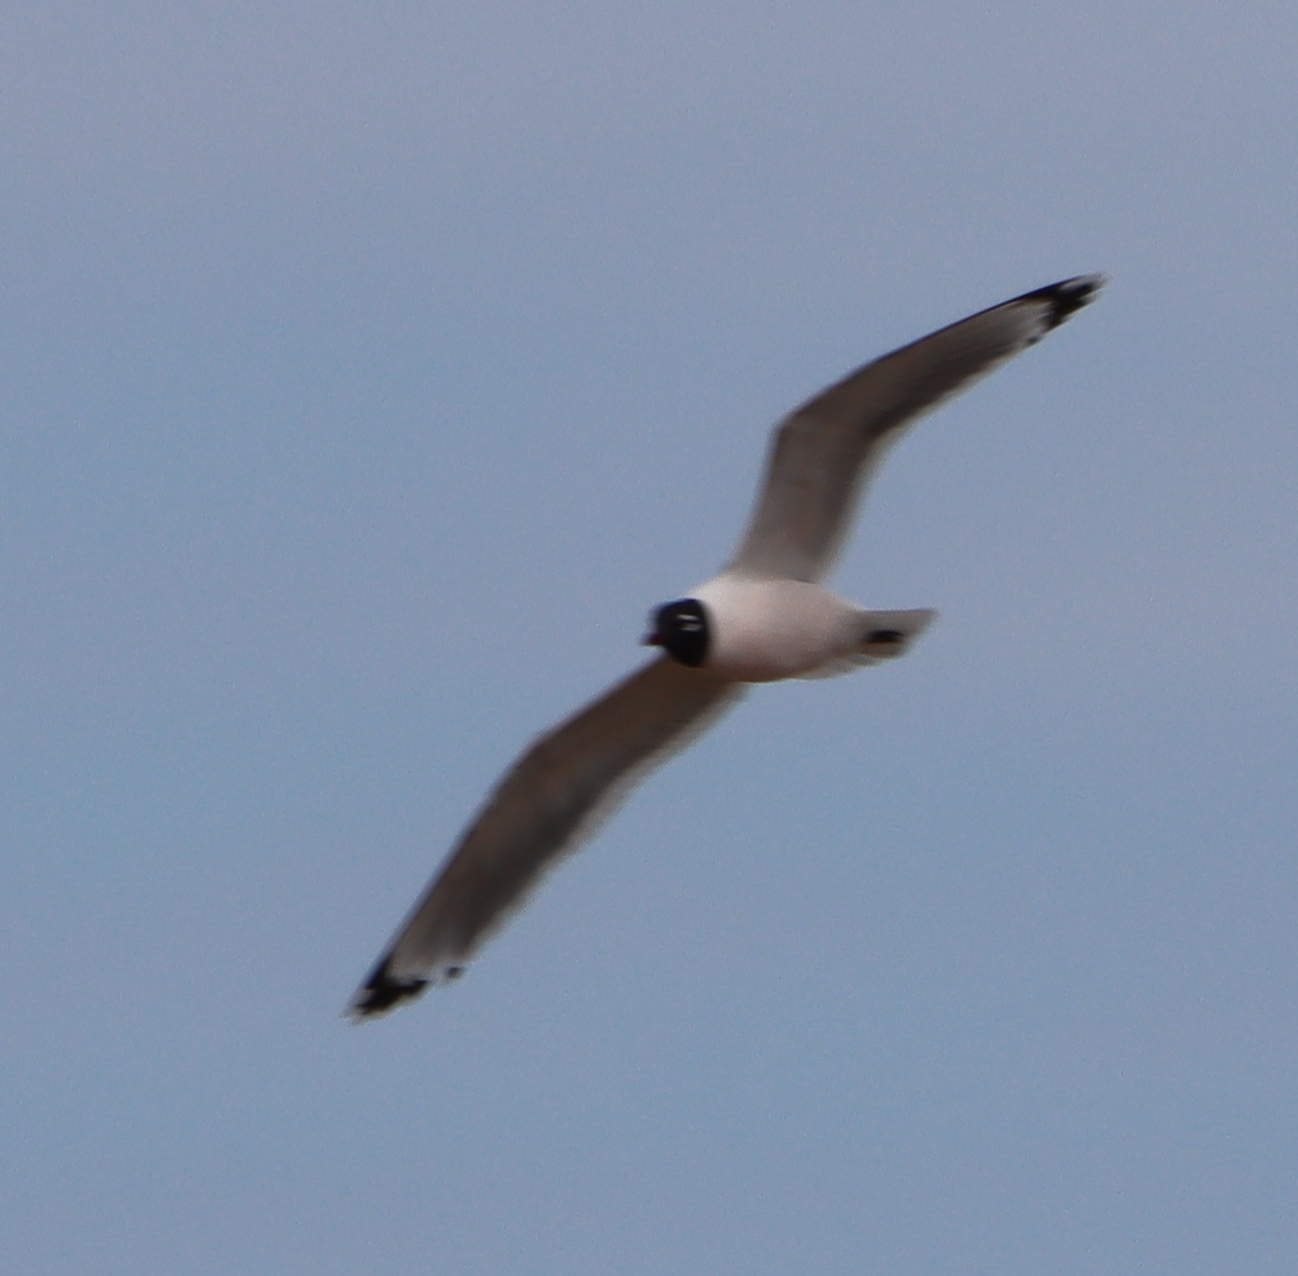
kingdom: Animalia
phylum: Chordata
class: Aves
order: Charadriiformes
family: Laridae
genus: Leucophaeus
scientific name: Leucophaeus pipixcan
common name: Franklin's gull
